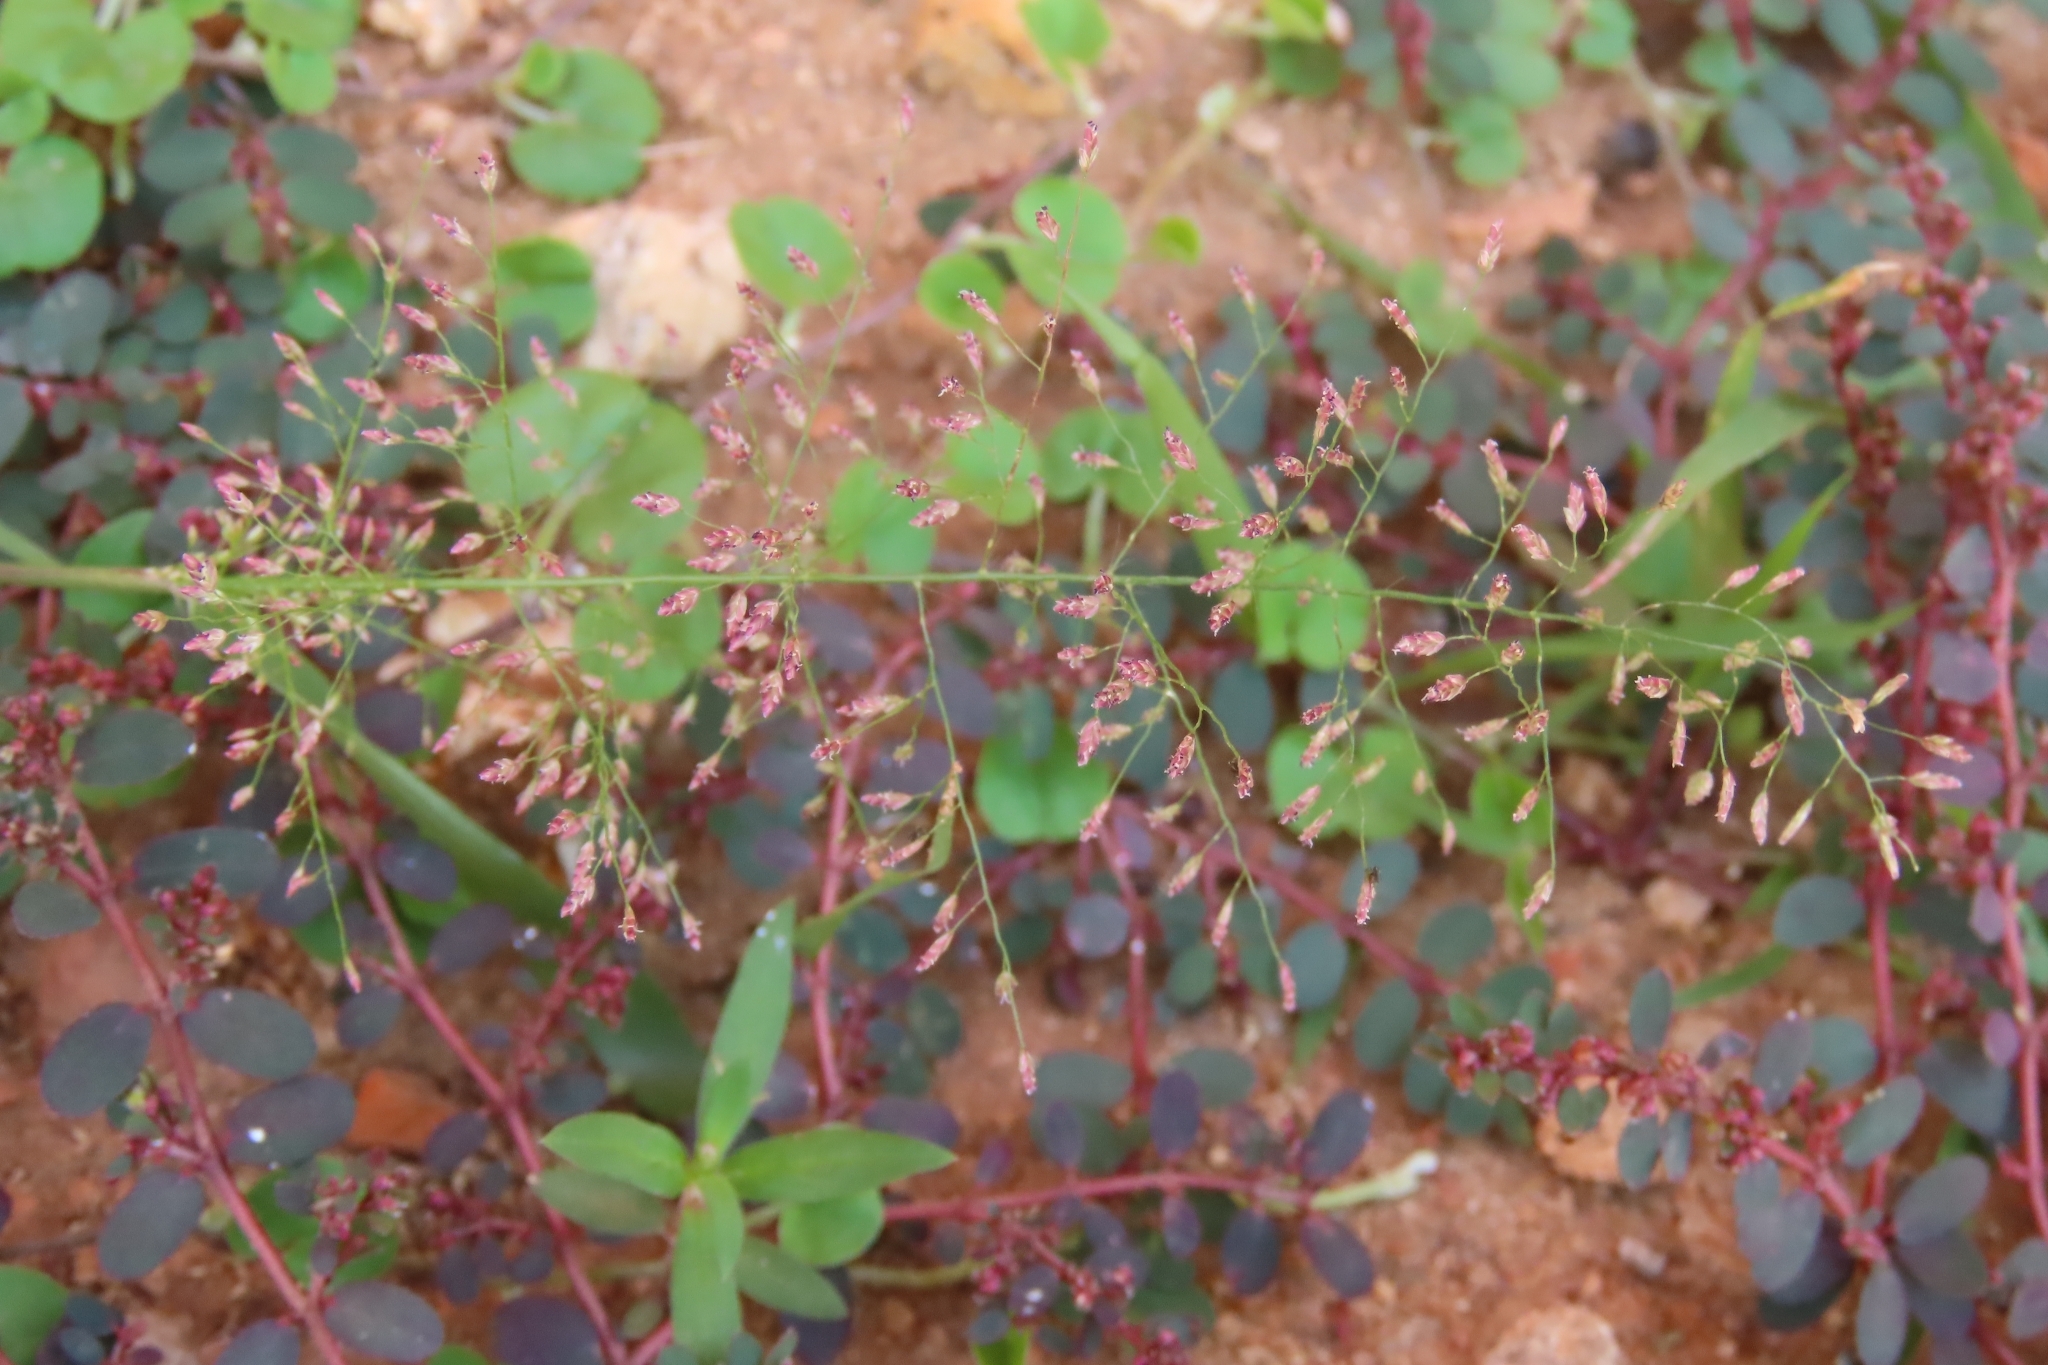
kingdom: Plantae
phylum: Tracheophyta
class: Liliopsida
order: Poales
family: Poaceae
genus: Eragrostis
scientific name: Eragrostis tenella
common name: Japanese lovegrass
